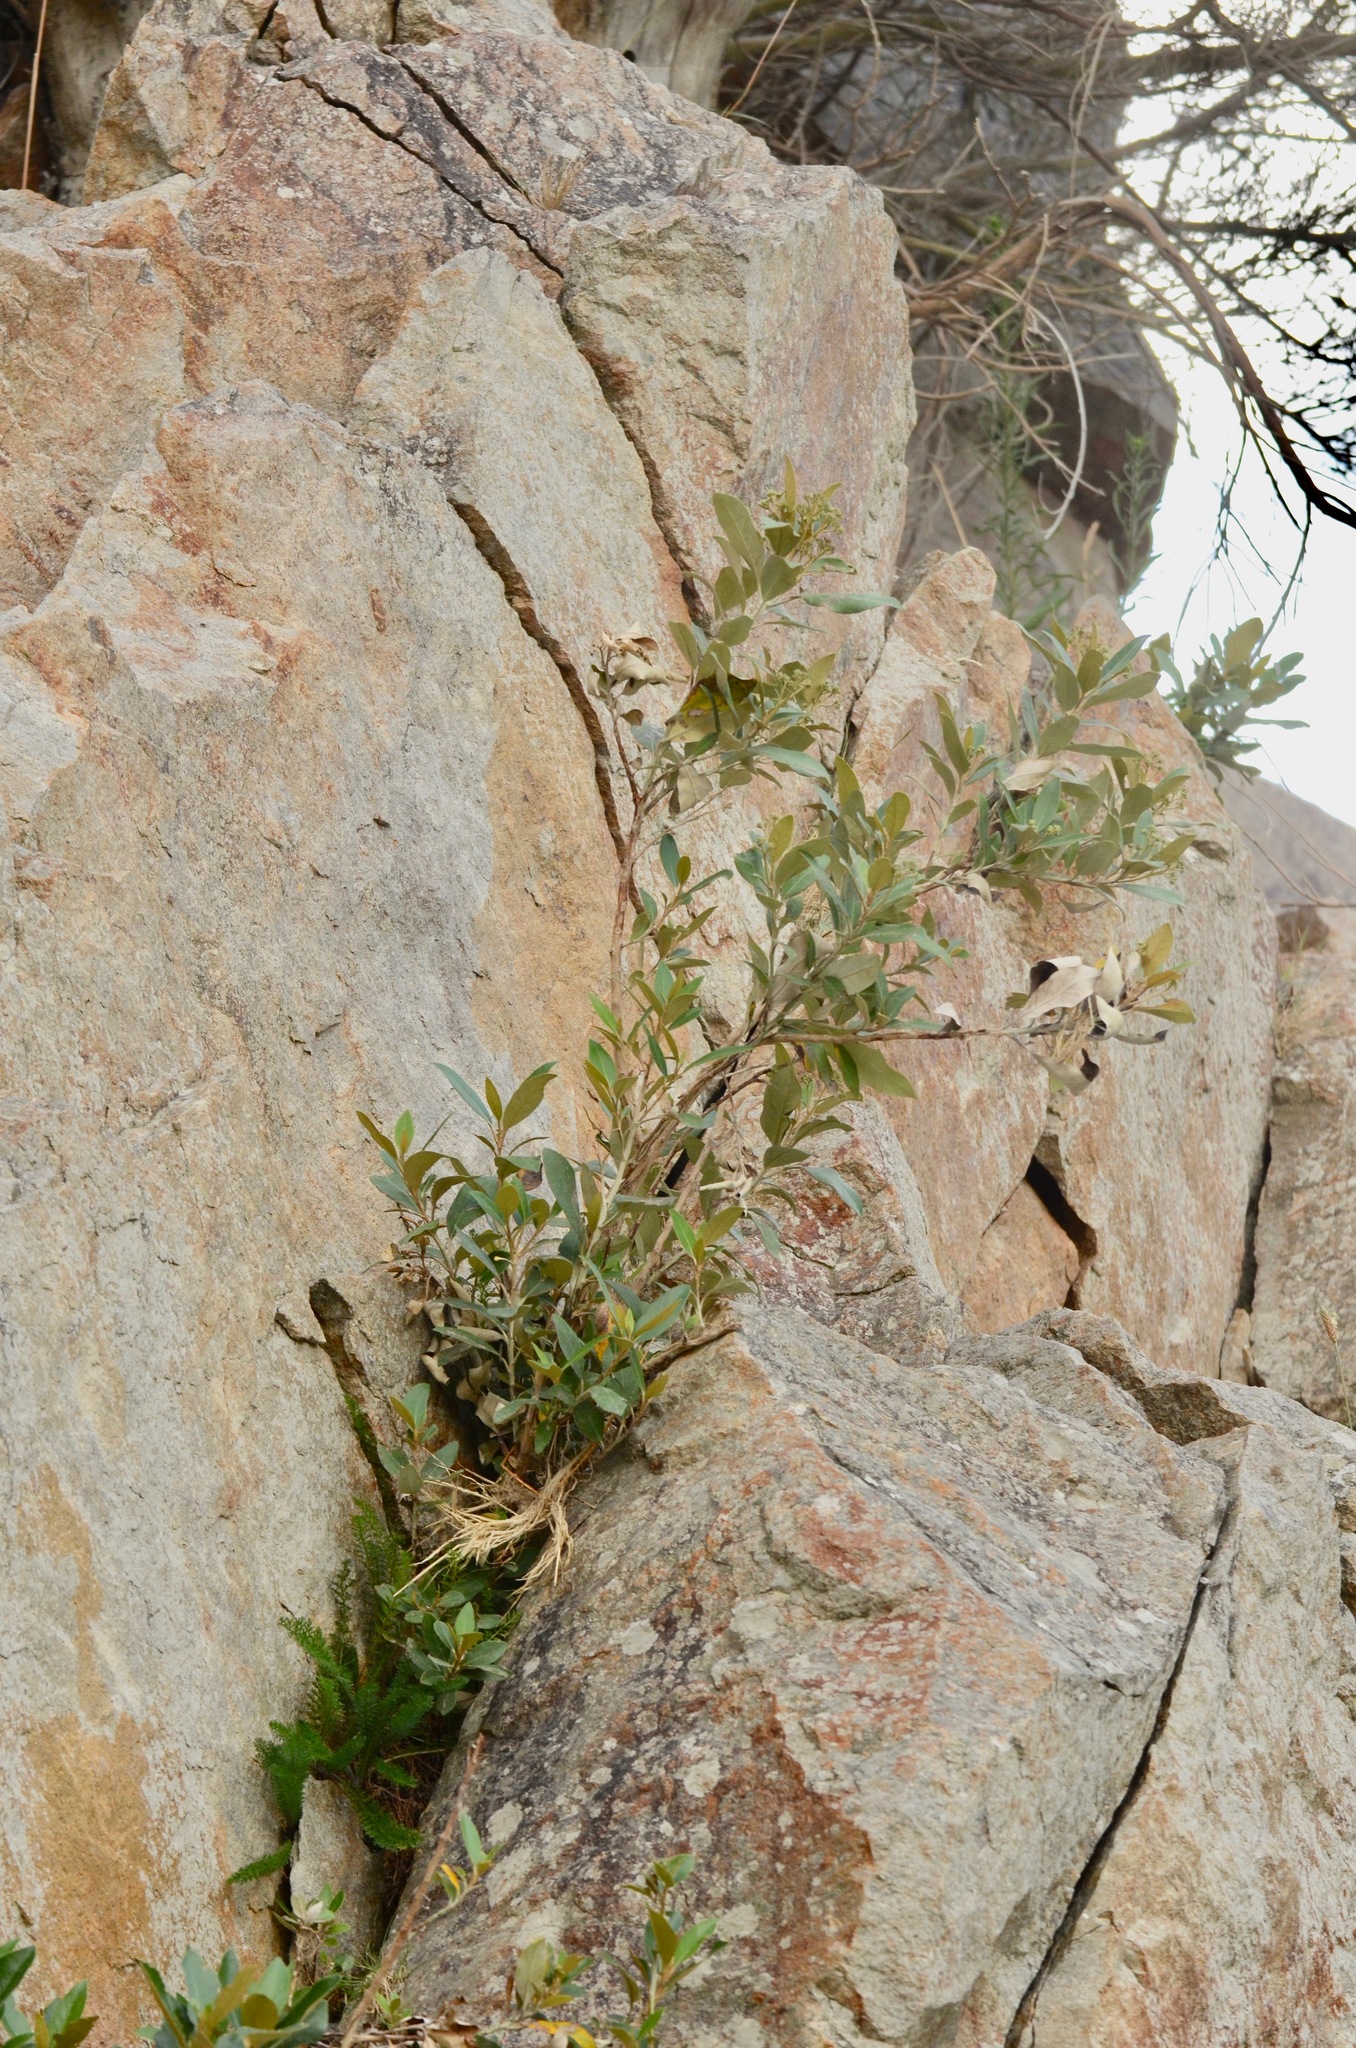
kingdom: Plantae
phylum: Tracheophyta
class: Magnoliopsida
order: Asterales
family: Asteraceae
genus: Olearia
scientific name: Olearia avicenniifolia
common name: Mangrove-leaf daisybush
